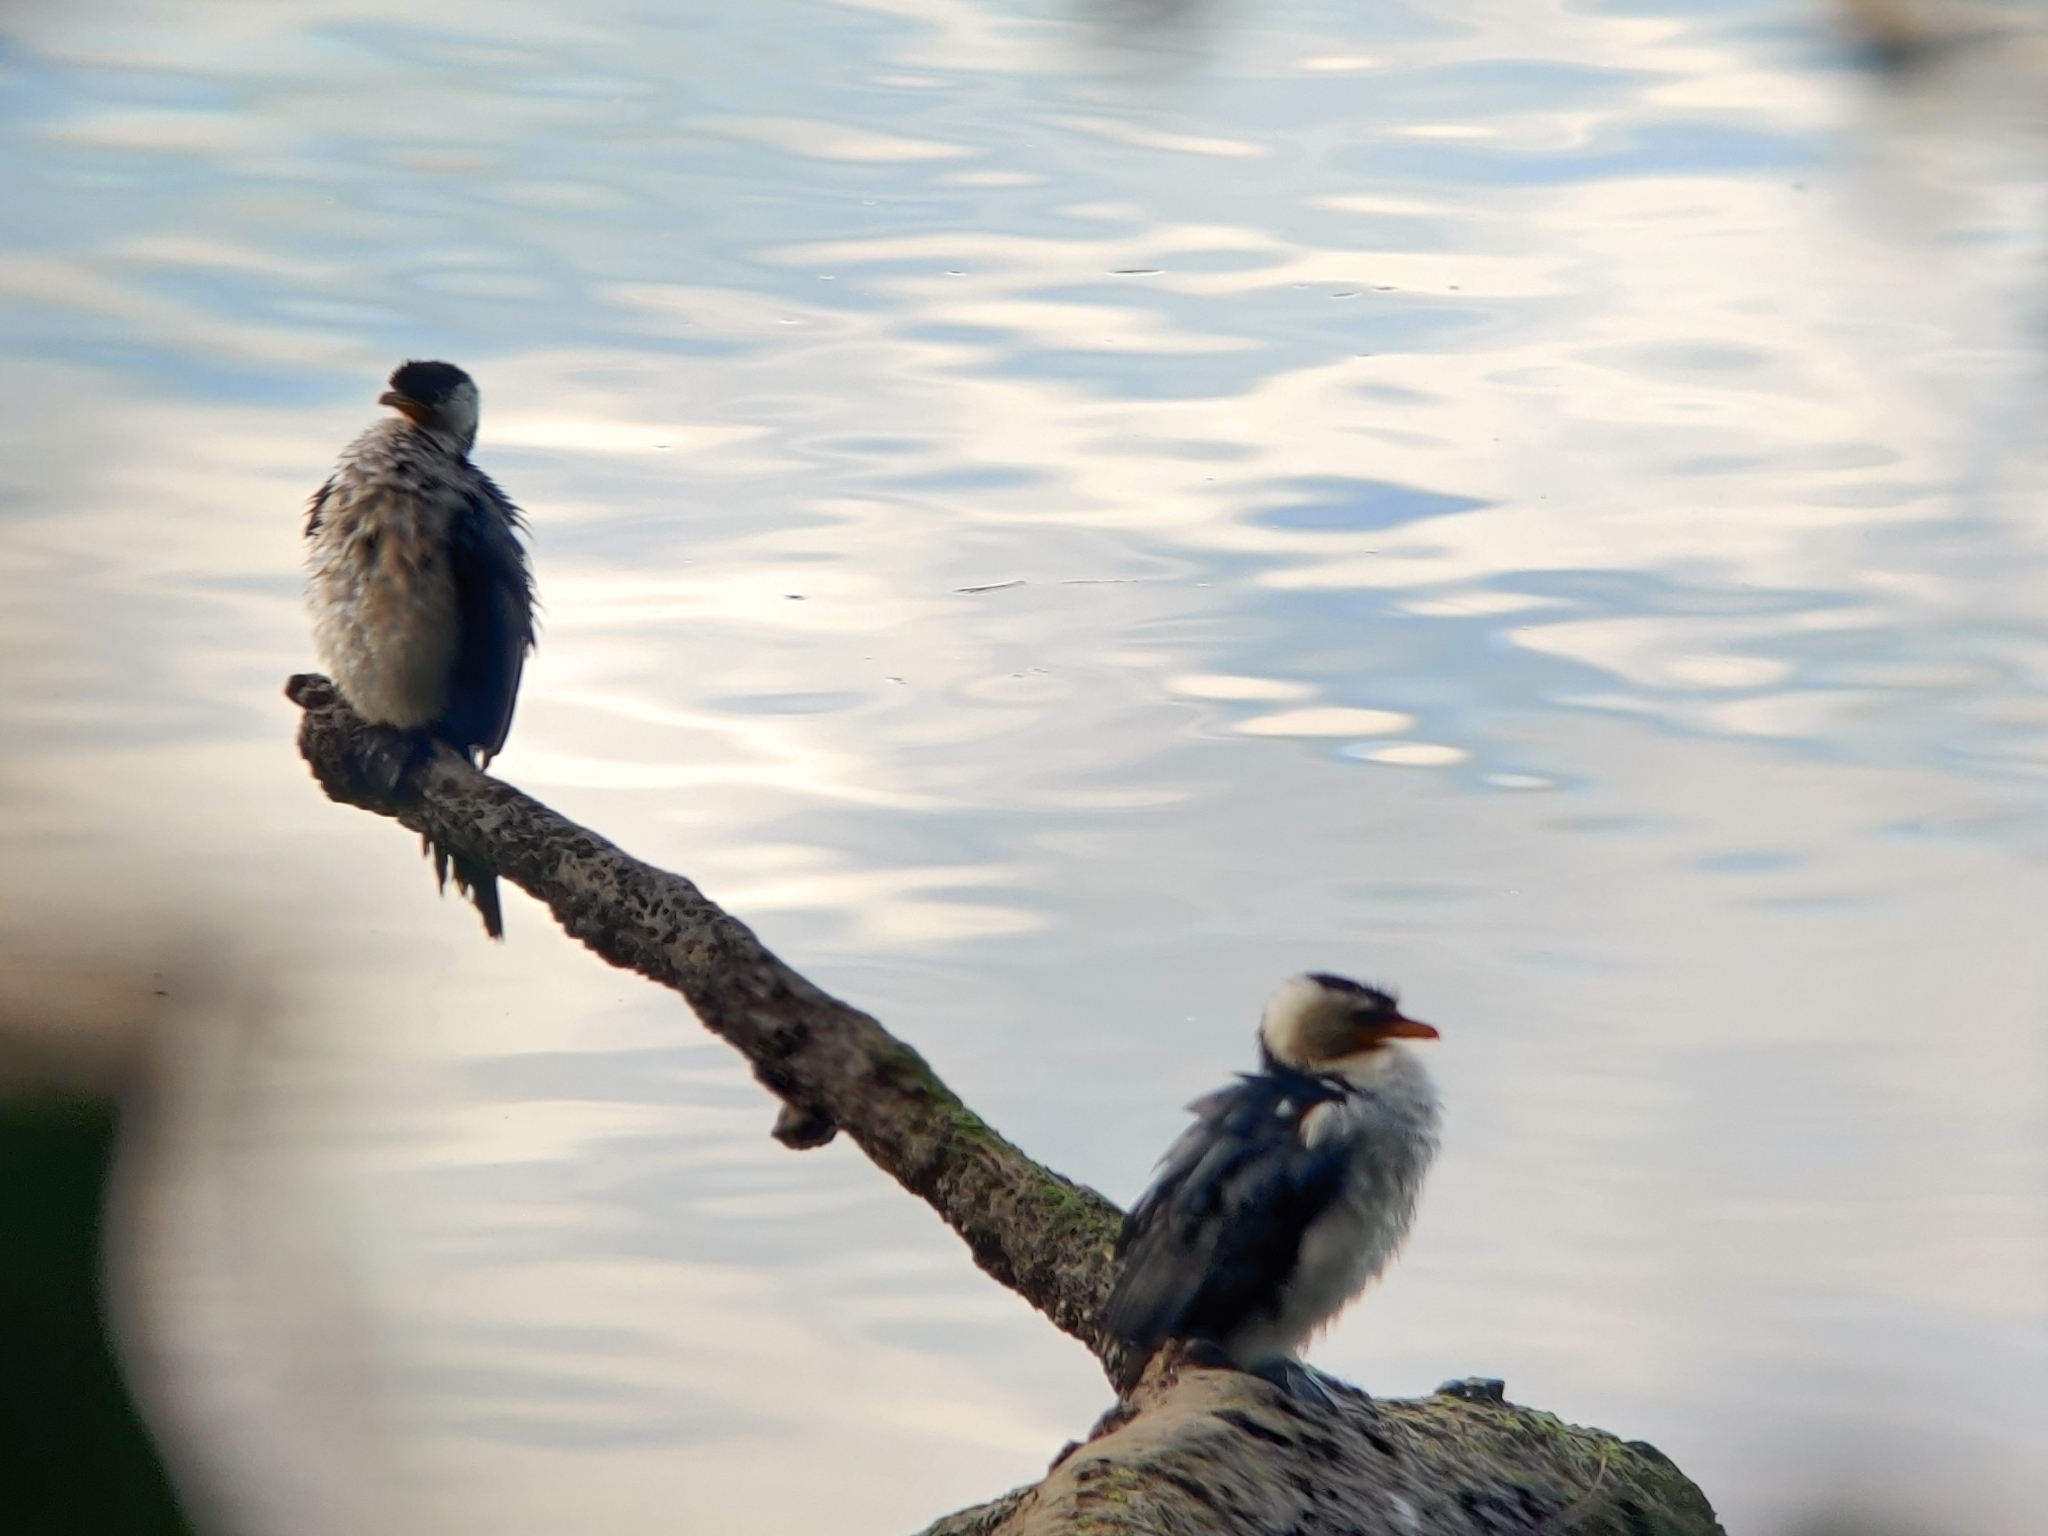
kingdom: Animalia
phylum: Chordata
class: Aves
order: Suliformes
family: Phalacrocoracidae
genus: Microcarbo
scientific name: Microcarbo melanoleucos
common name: Little pied cormorant
